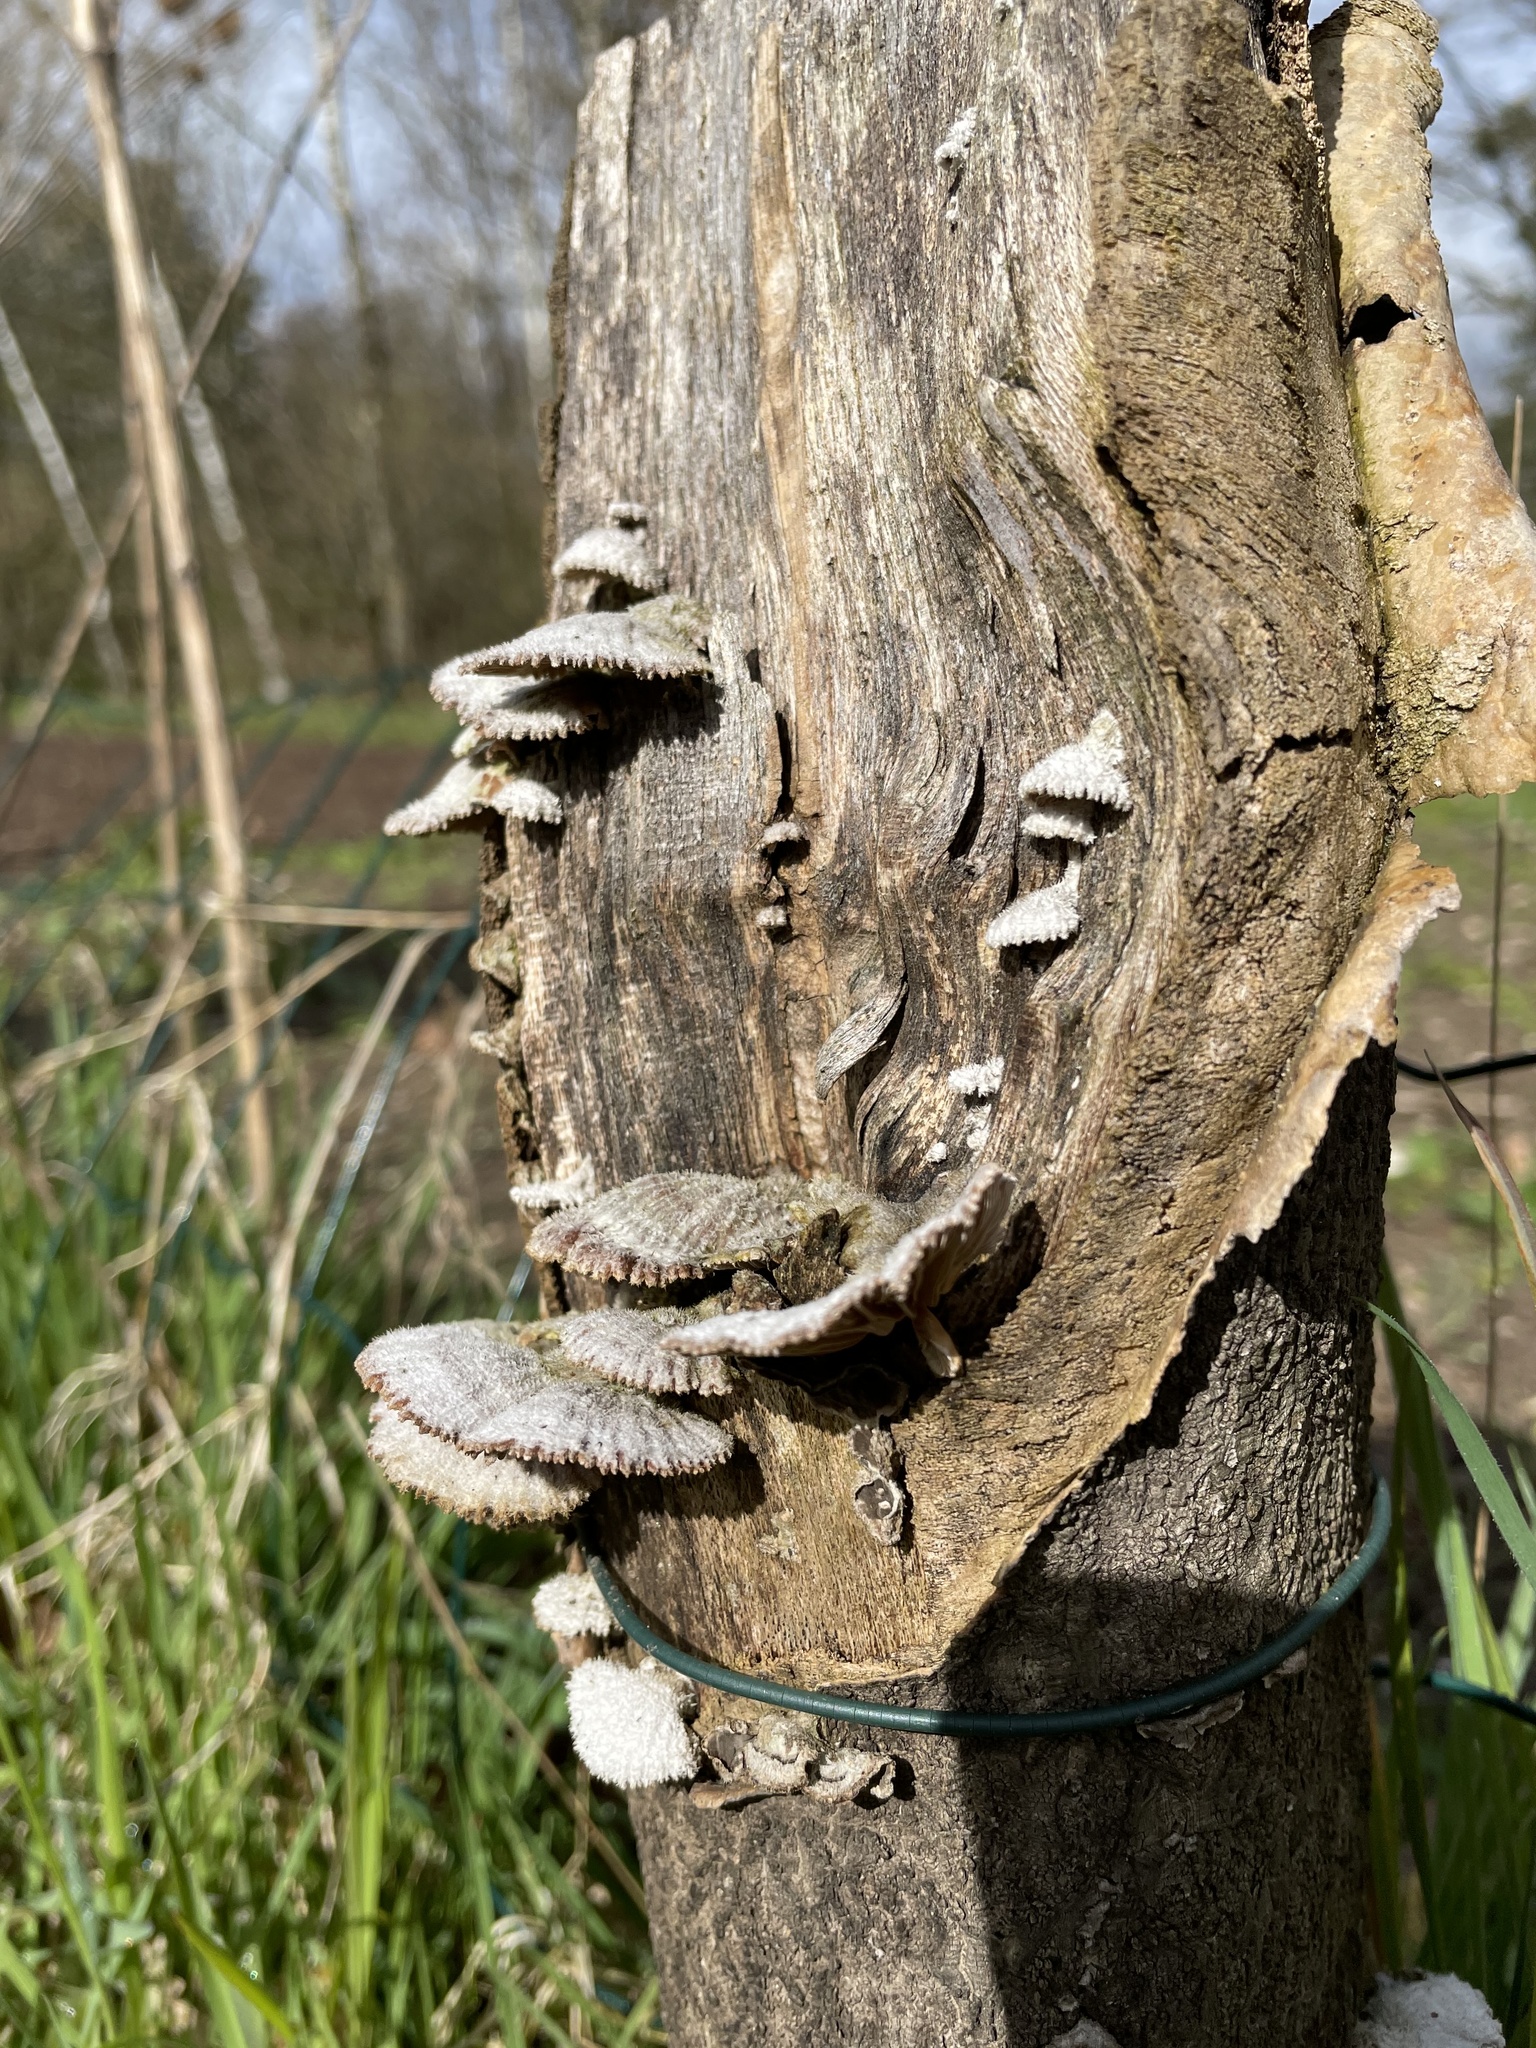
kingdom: Fungi
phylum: Basidiomycota
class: Agaricomycetes
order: Agaricales
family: Schizophyllaceae
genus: Schizophyllum
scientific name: Schizophyllum commune
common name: Common porecrust
